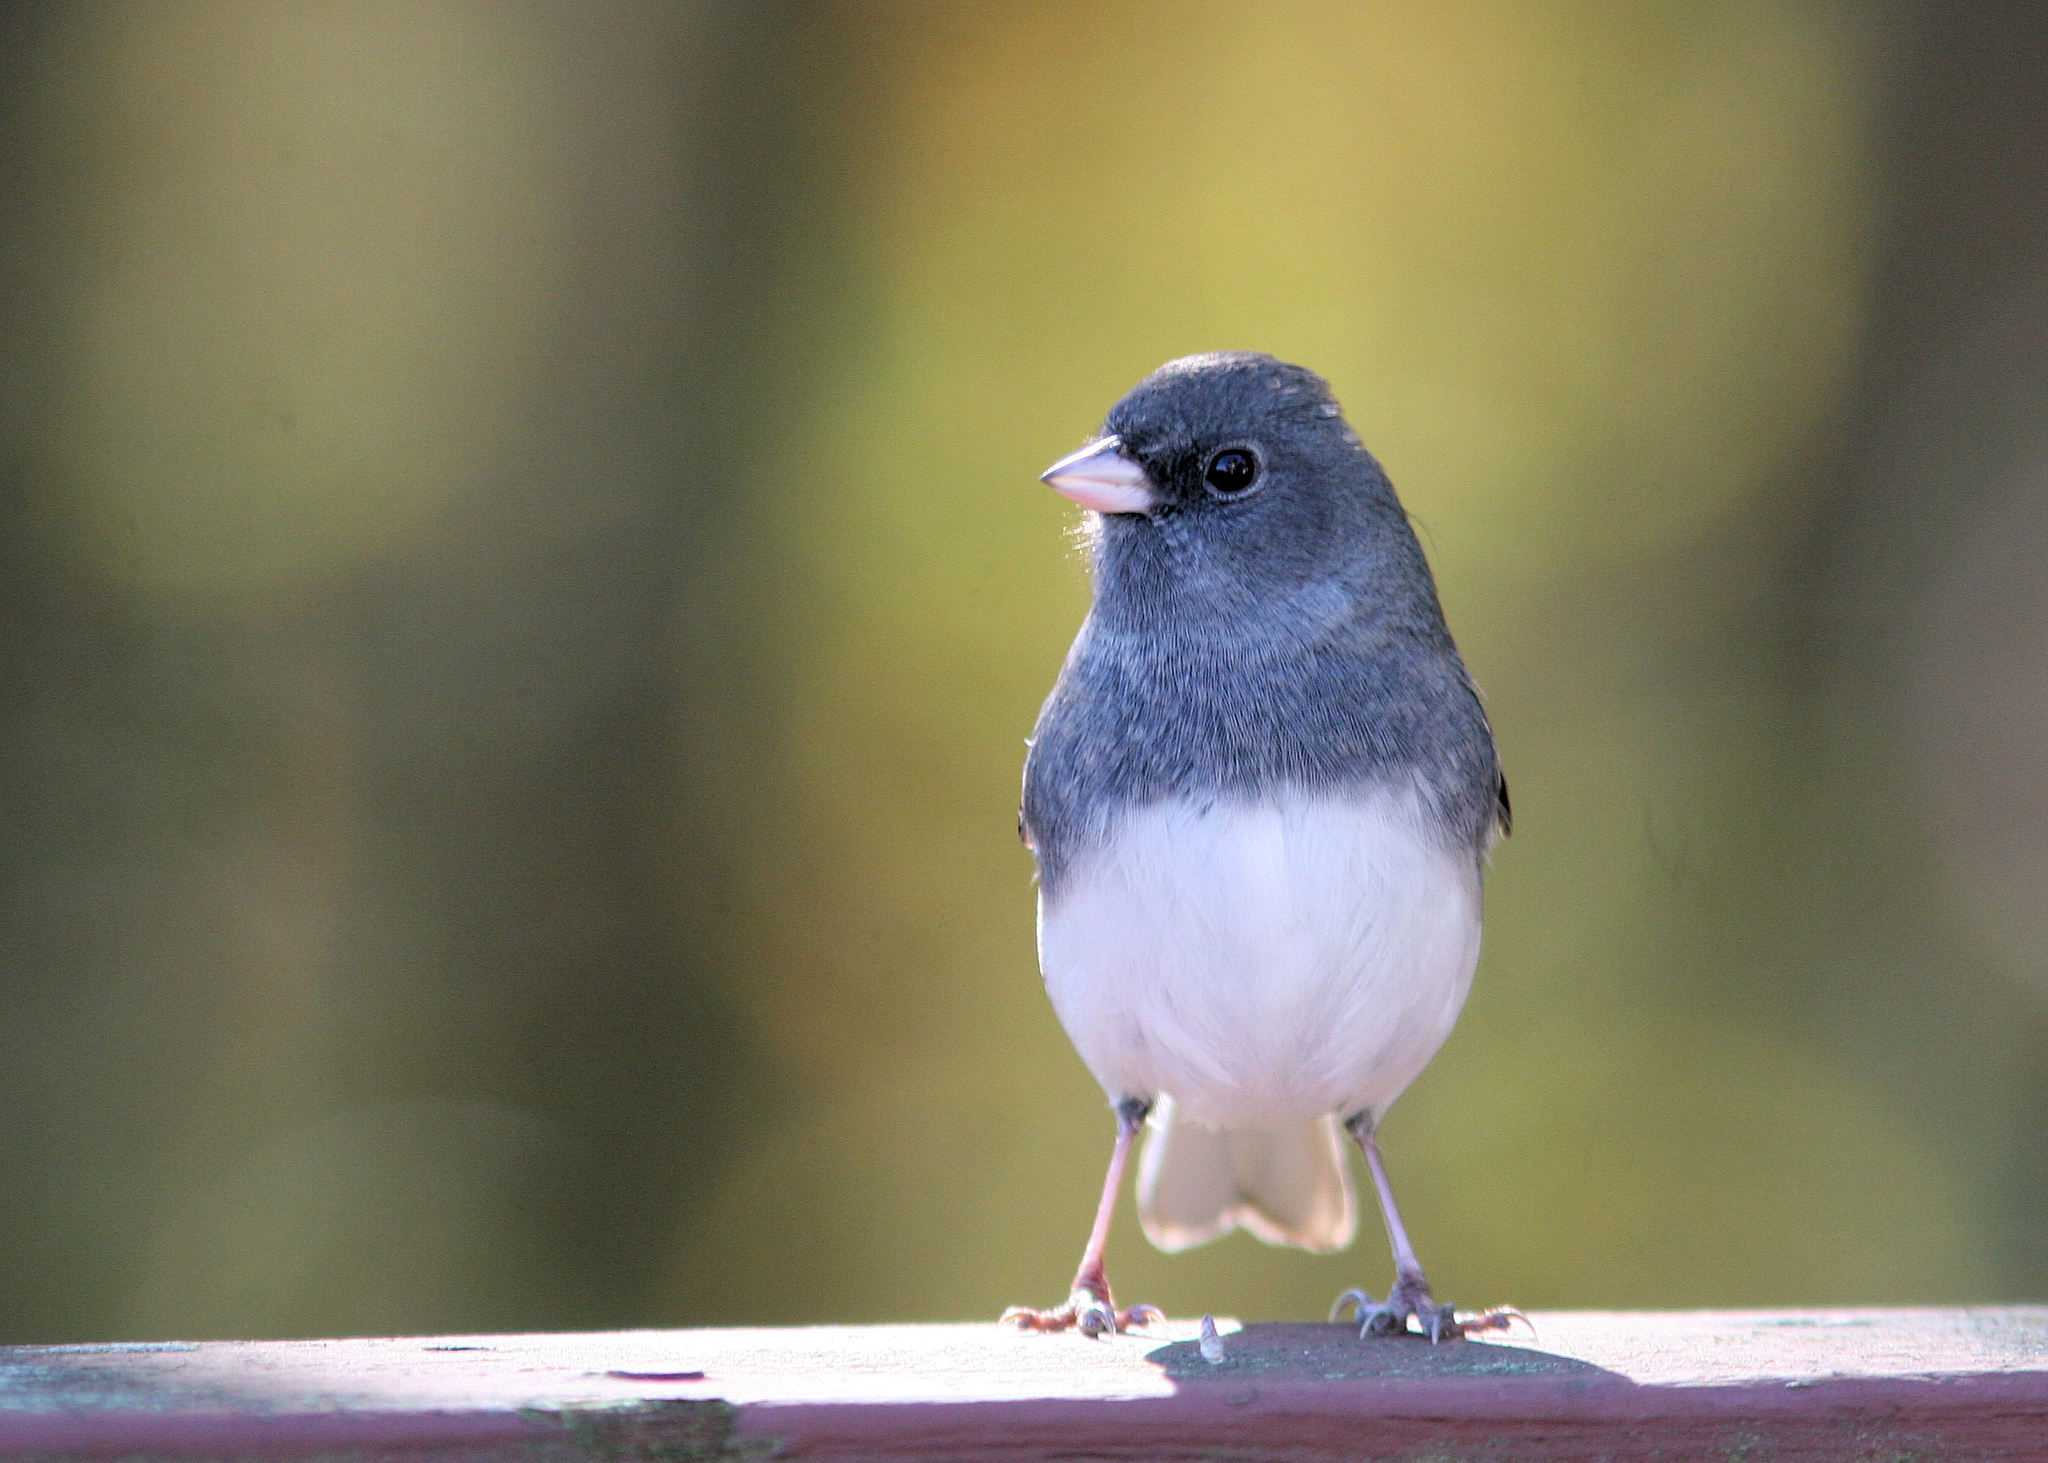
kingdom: Animalia
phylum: Chordata
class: Aves
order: Passeriformes
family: Passerellidae
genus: Junco
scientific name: Junco hyemalis
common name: Dark-eyed junco
